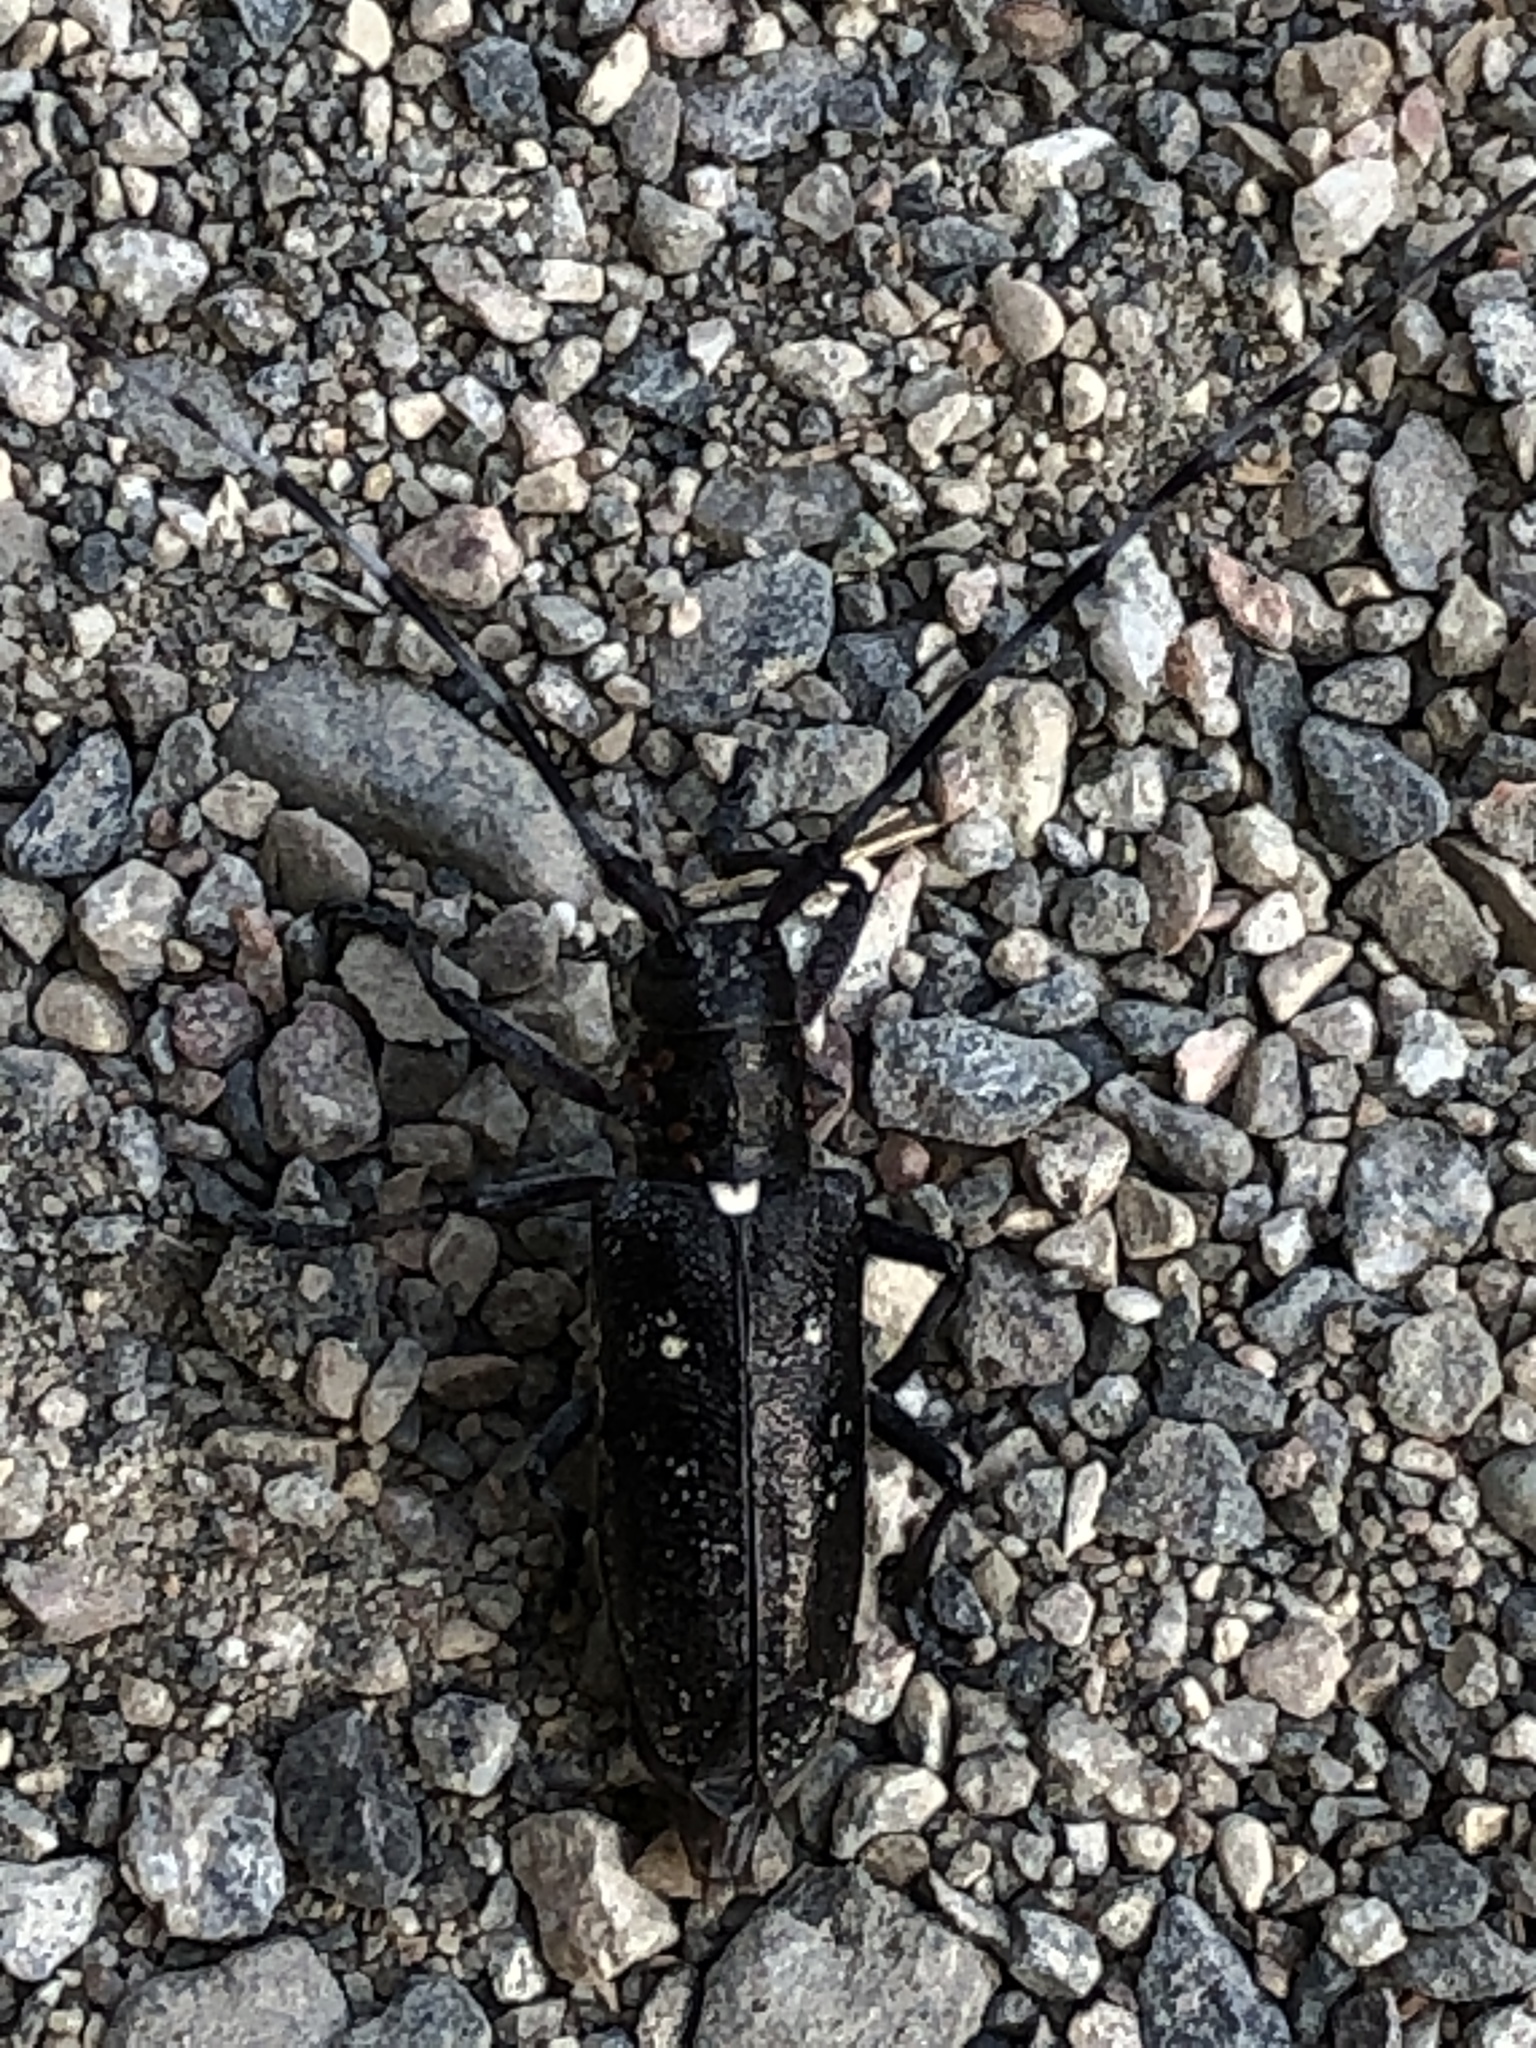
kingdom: Animalia
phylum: Arthropoda
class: Insecta
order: Coleoptera
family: Cerambycidae
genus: Monochamus
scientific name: Monochamus scutellatus
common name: White-spotted sawyer beetle
